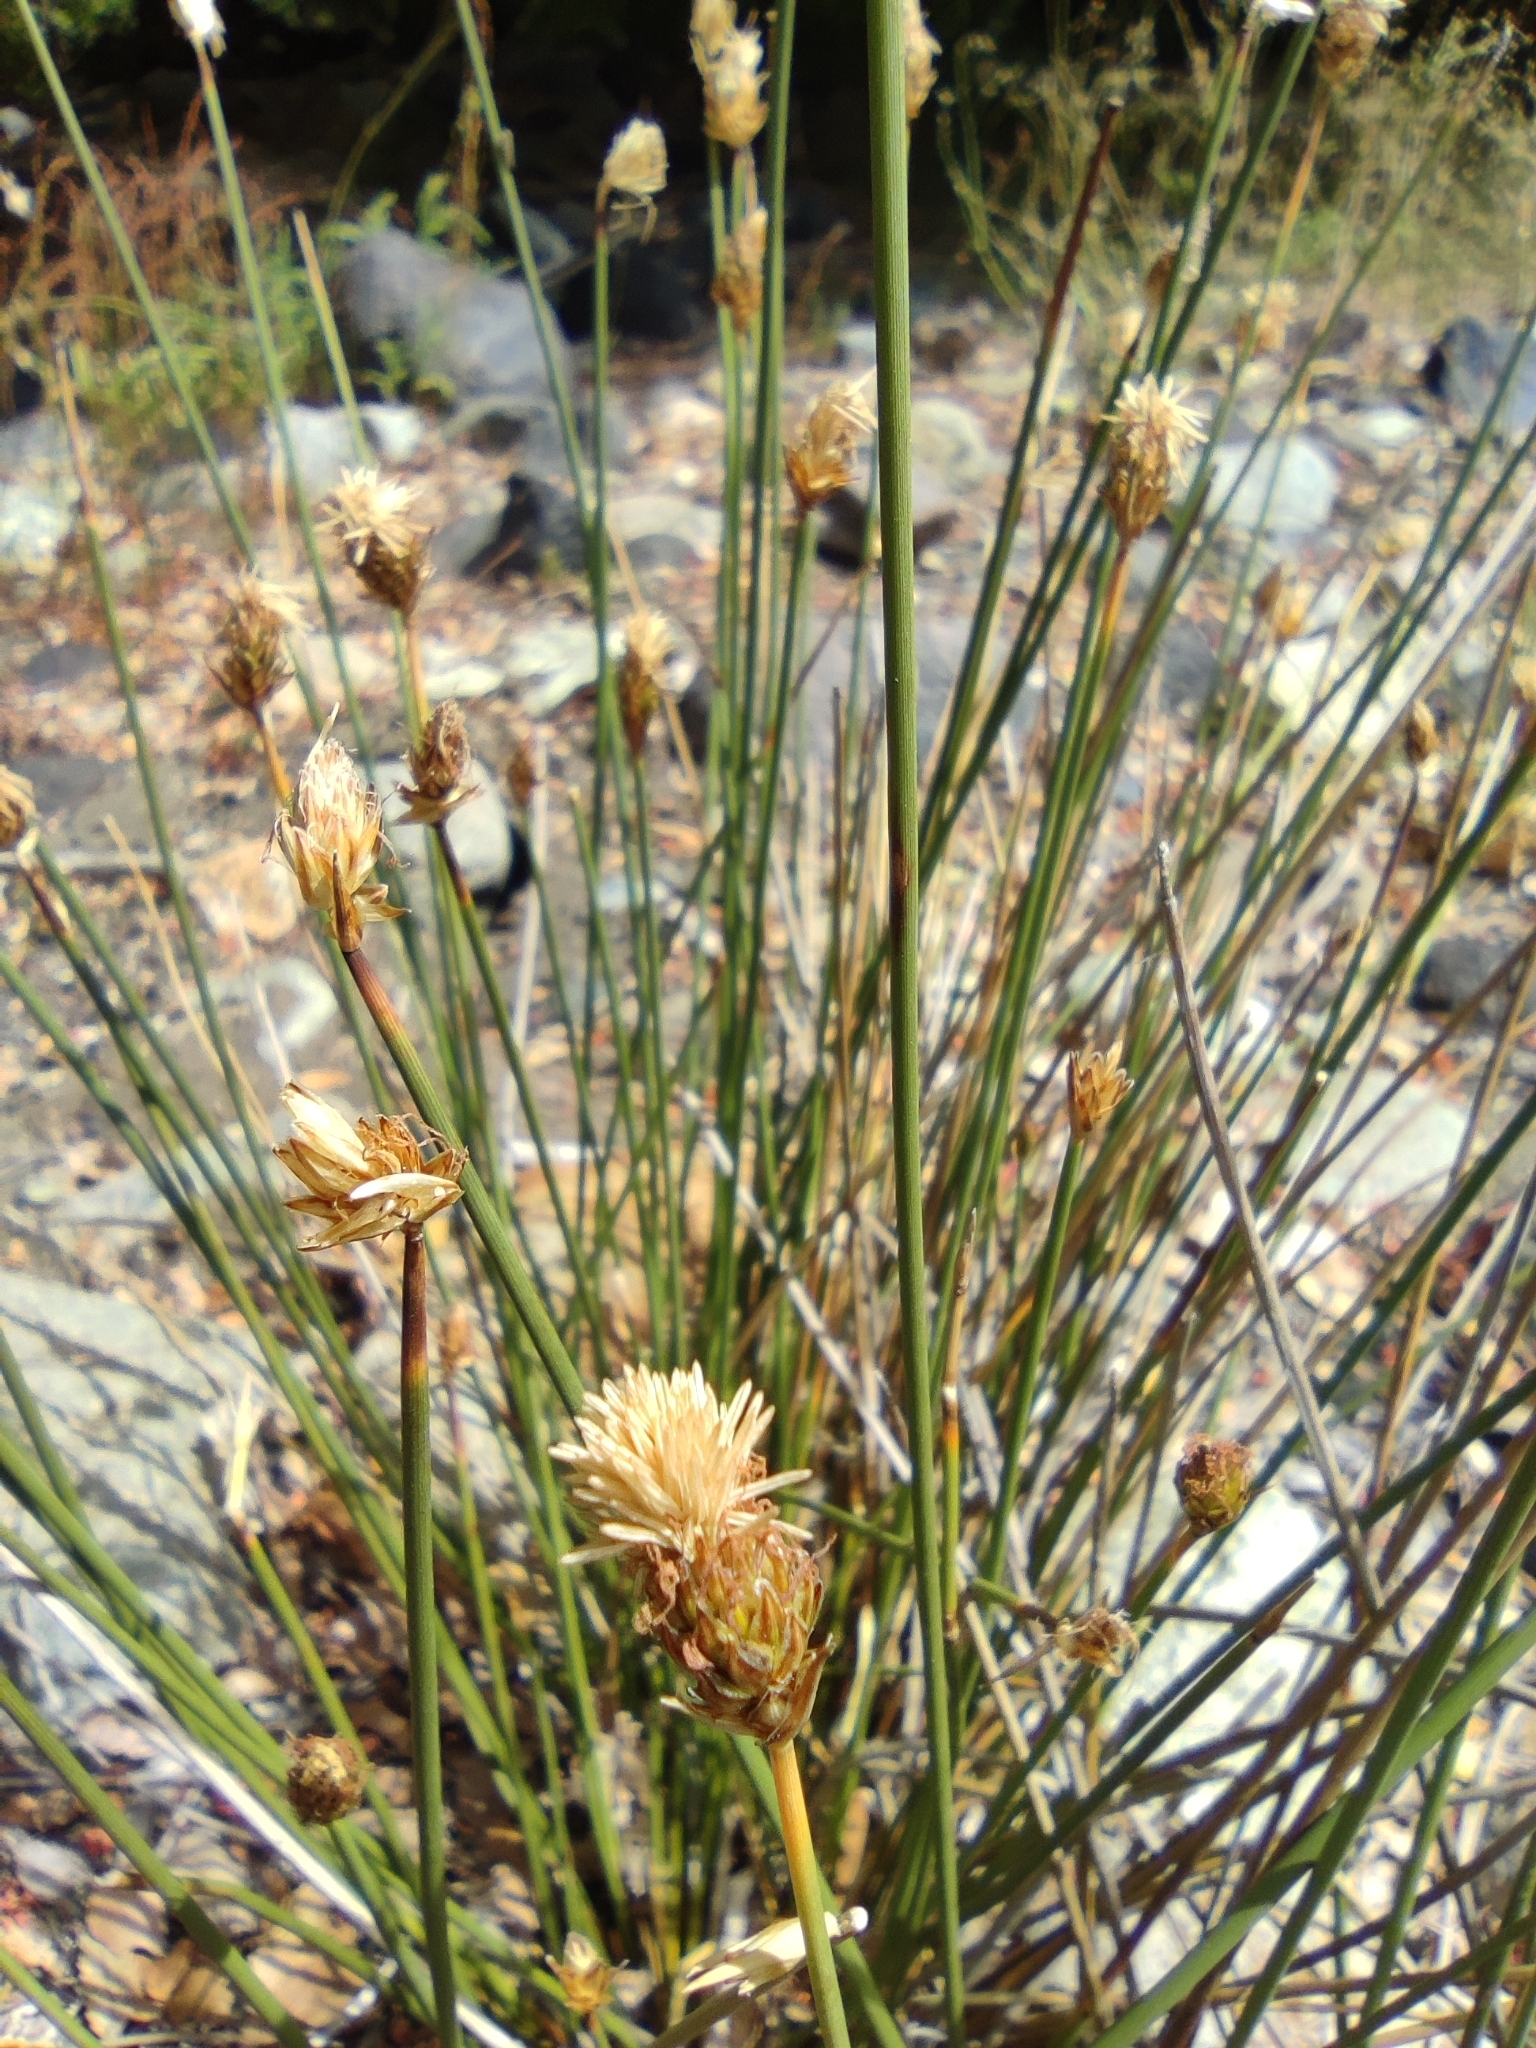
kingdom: Plantae
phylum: Tracheophyta
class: Liliopsida
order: Poales
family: Cyperaceae
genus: Carex
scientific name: Carex aphylla
